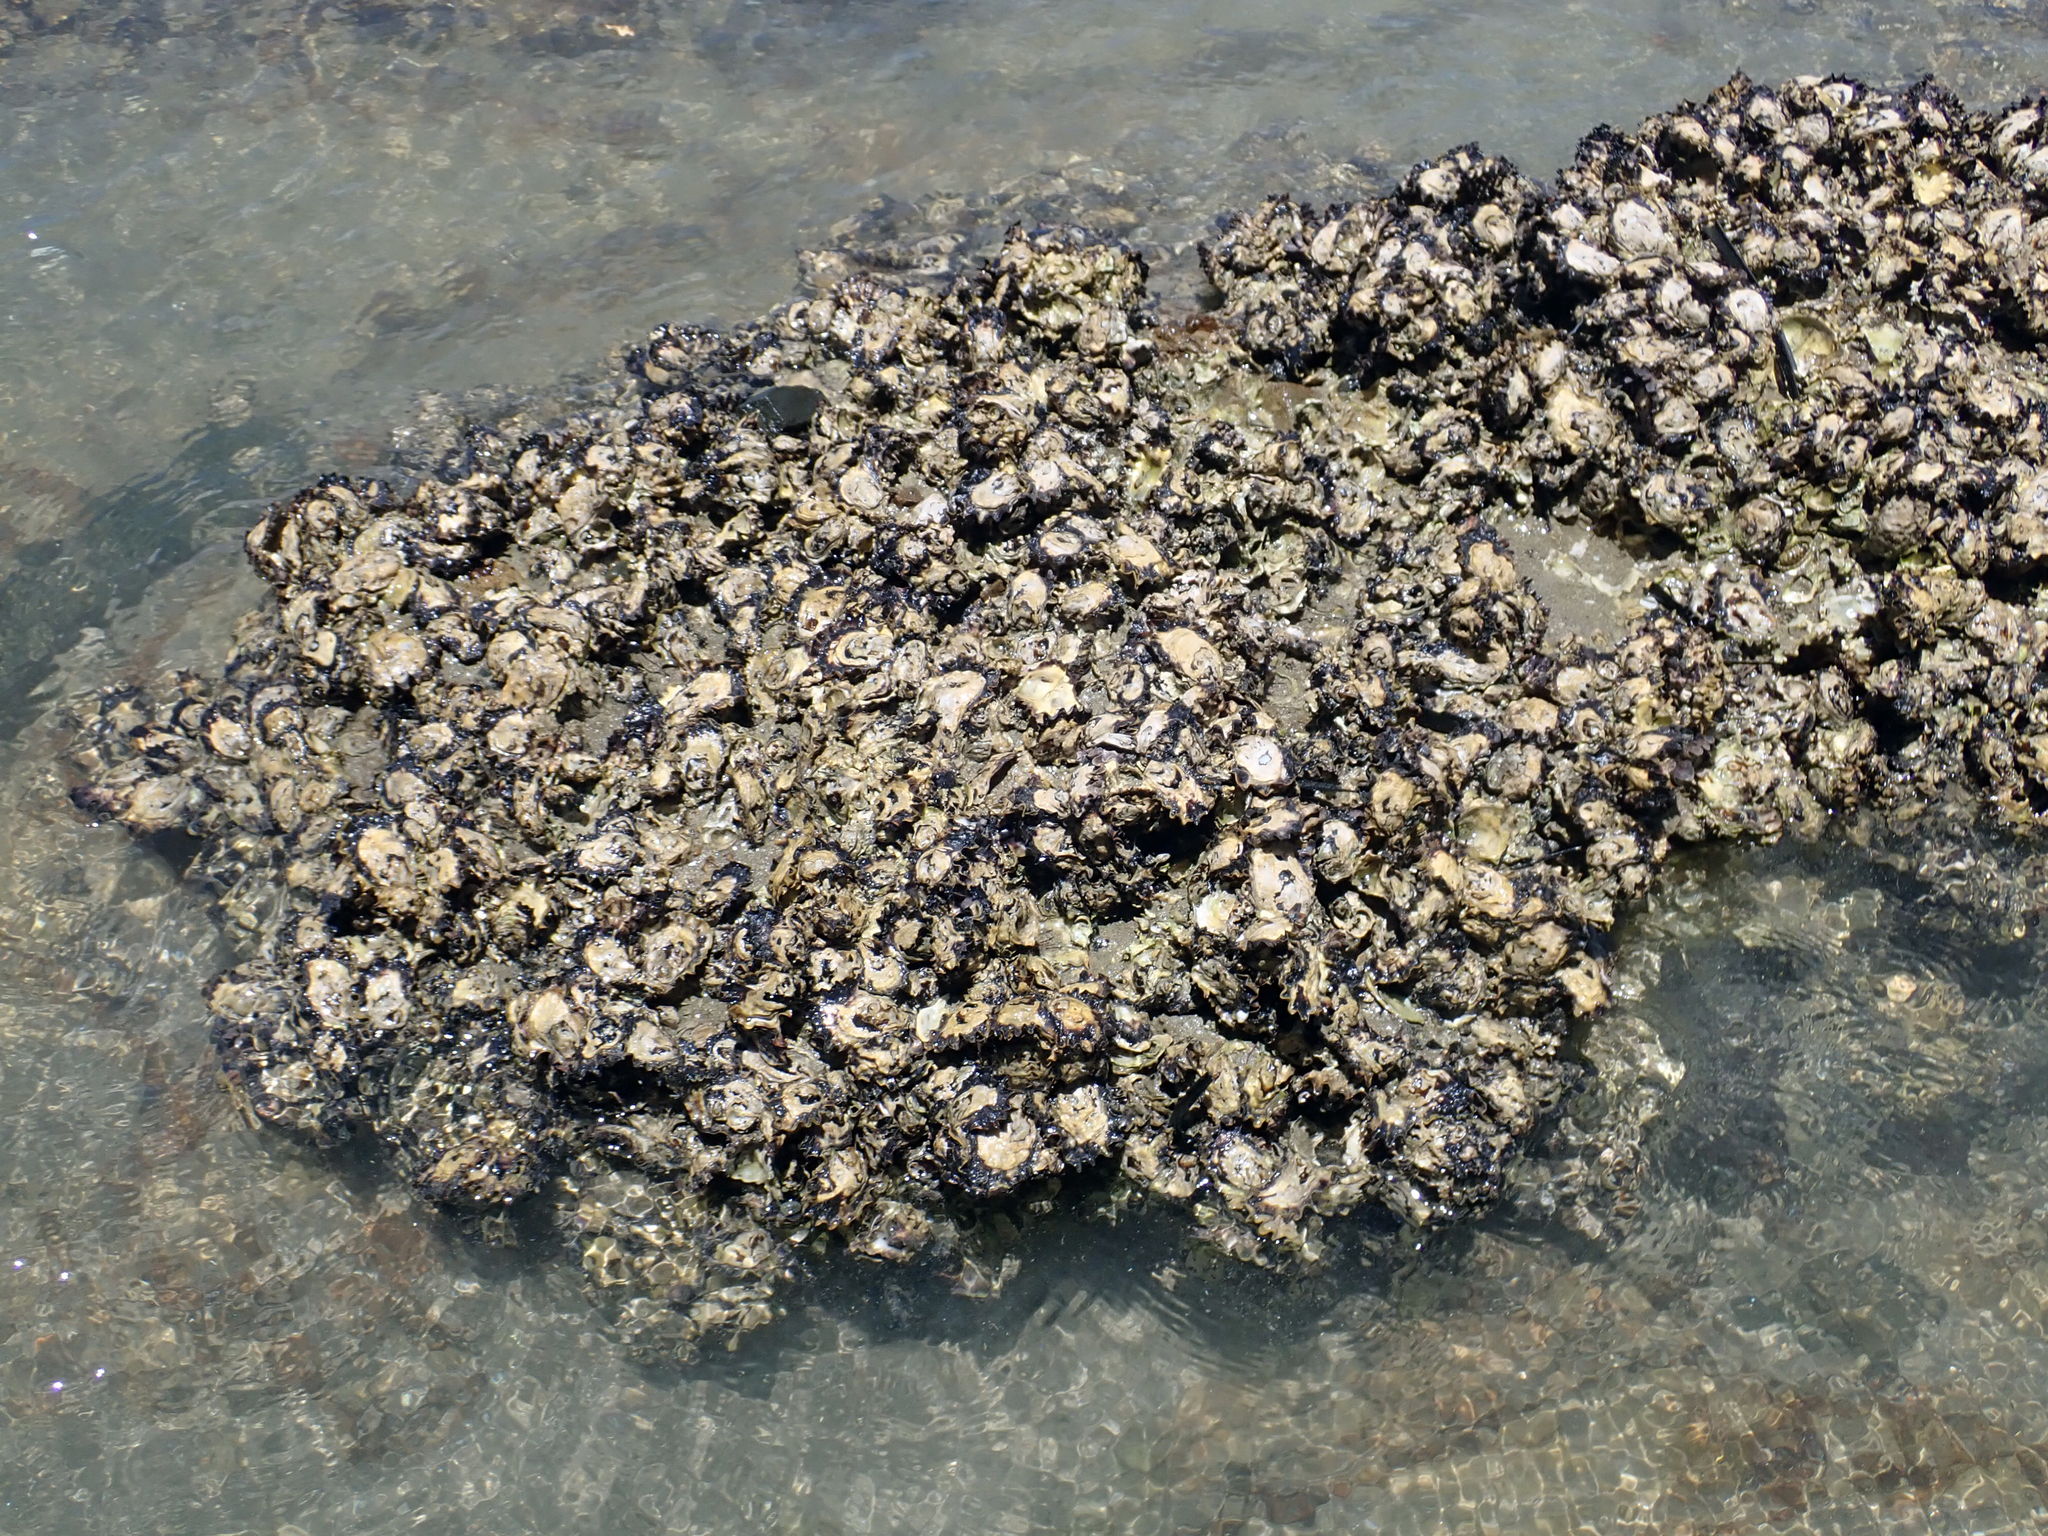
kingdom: Animalia
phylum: Mollusca
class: Bivalvia
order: Ostreida
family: Ostreidae
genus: Saccostrea
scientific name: Saccostrea glomerata
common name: Sydney cupped oyster
